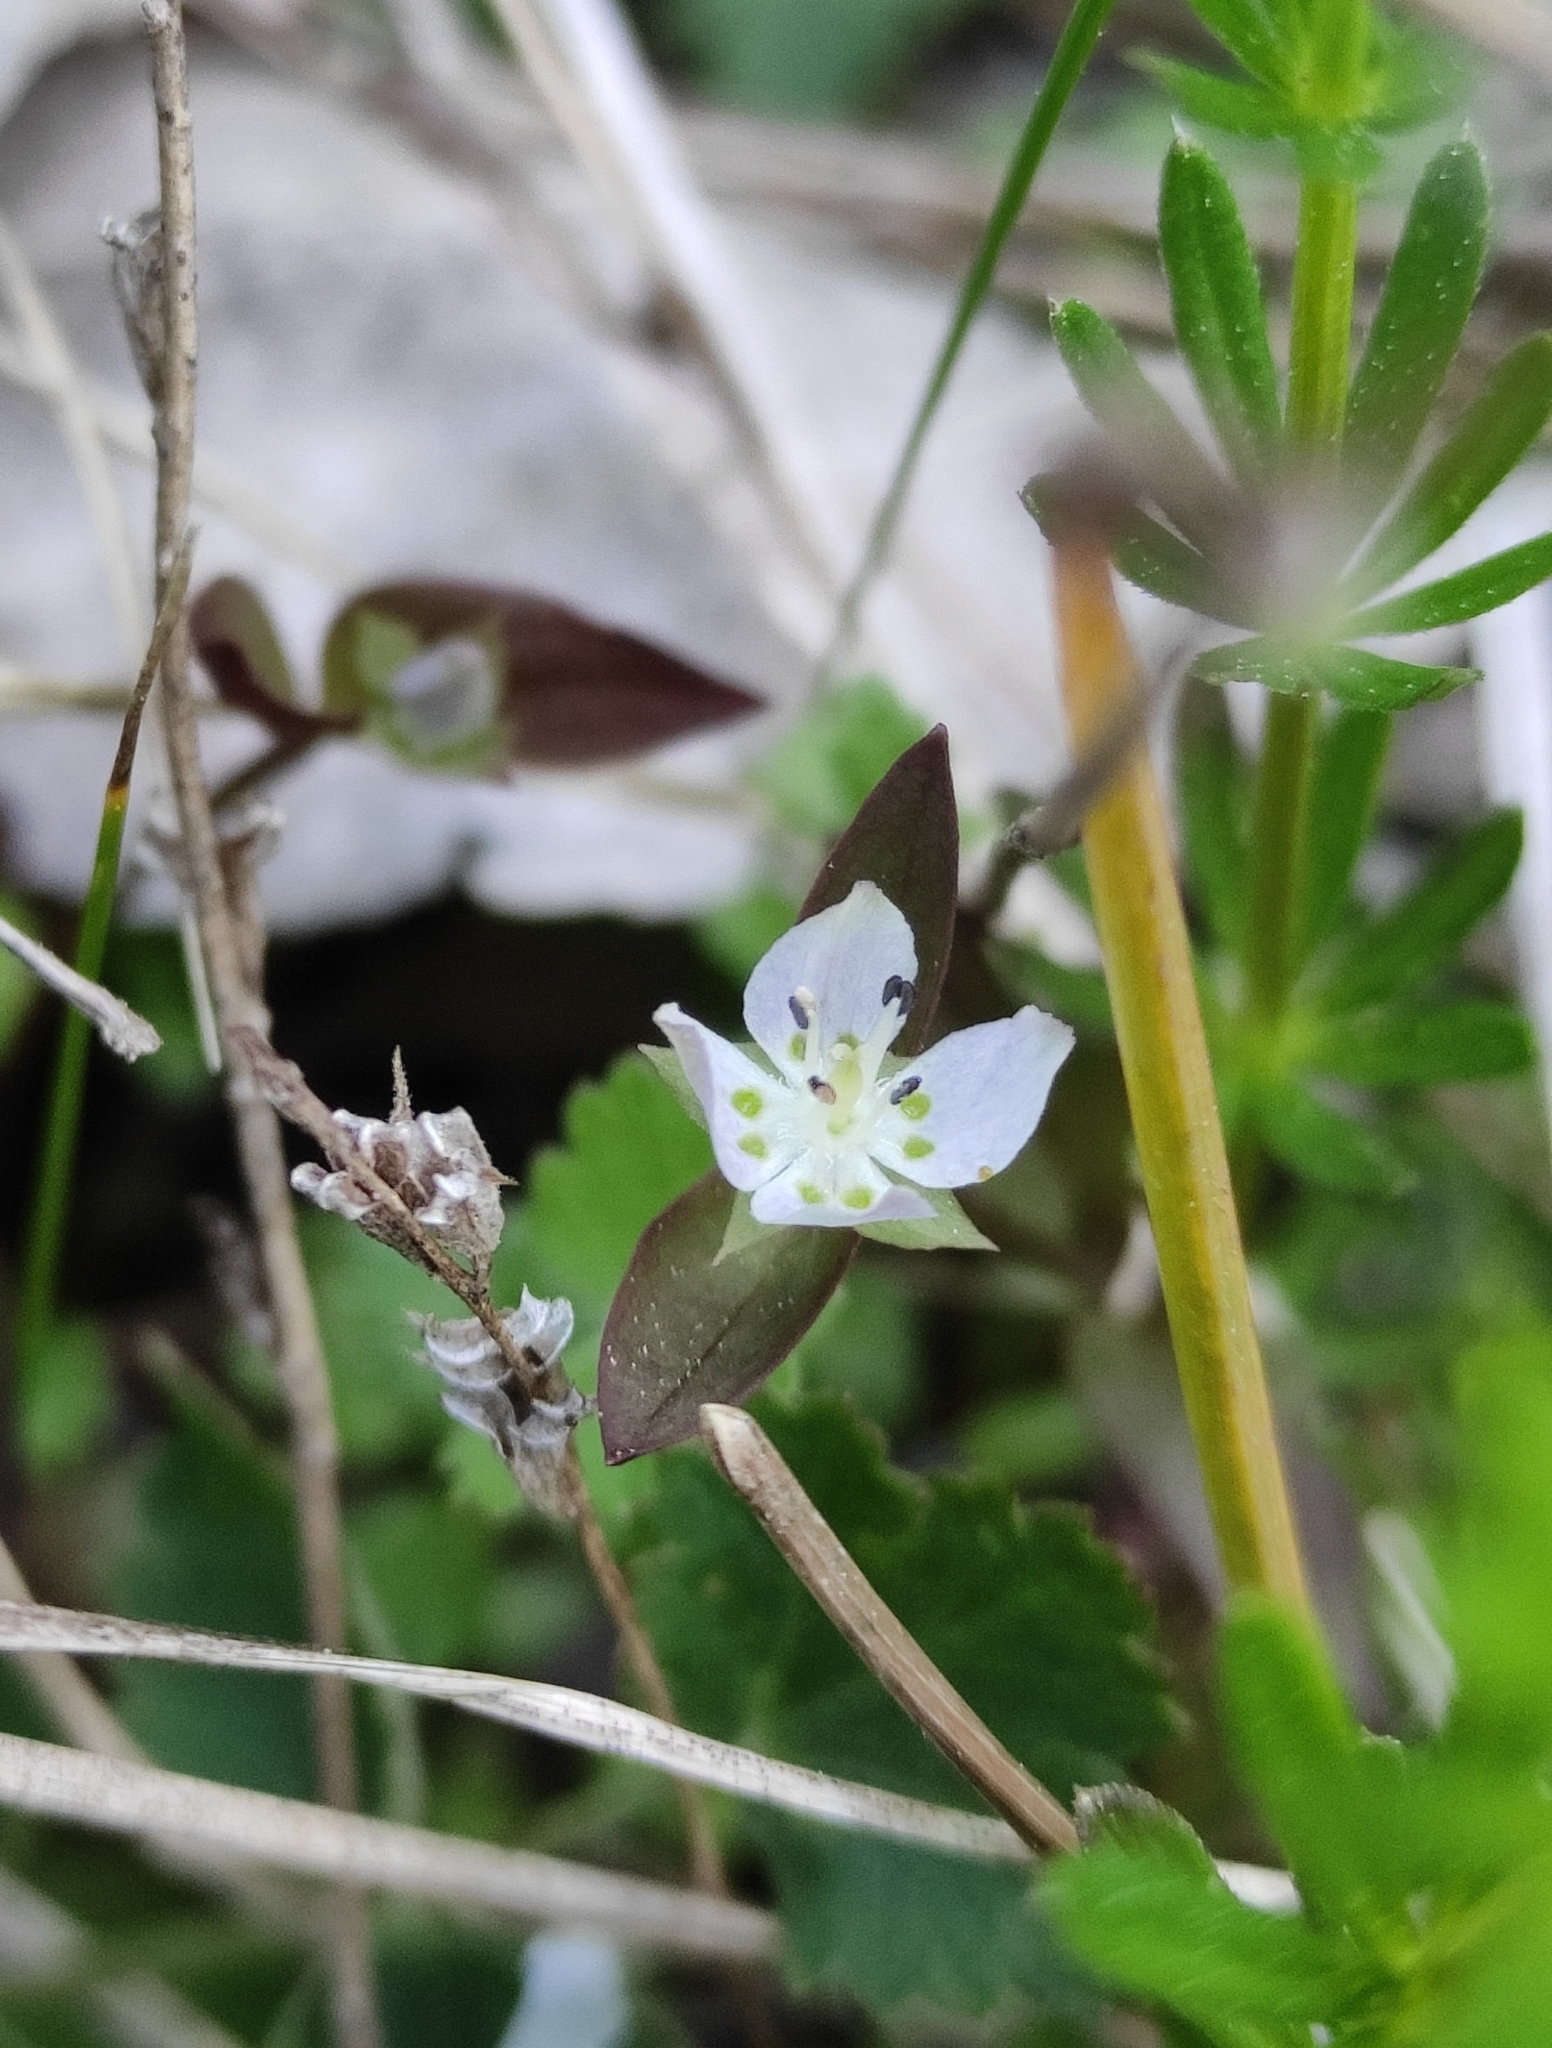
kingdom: Plantae
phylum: Tracheophyta
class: Magnoliopsida
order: Gentianales
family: Gentianaceae
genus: Swertia
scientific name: Swertia dichotoma
